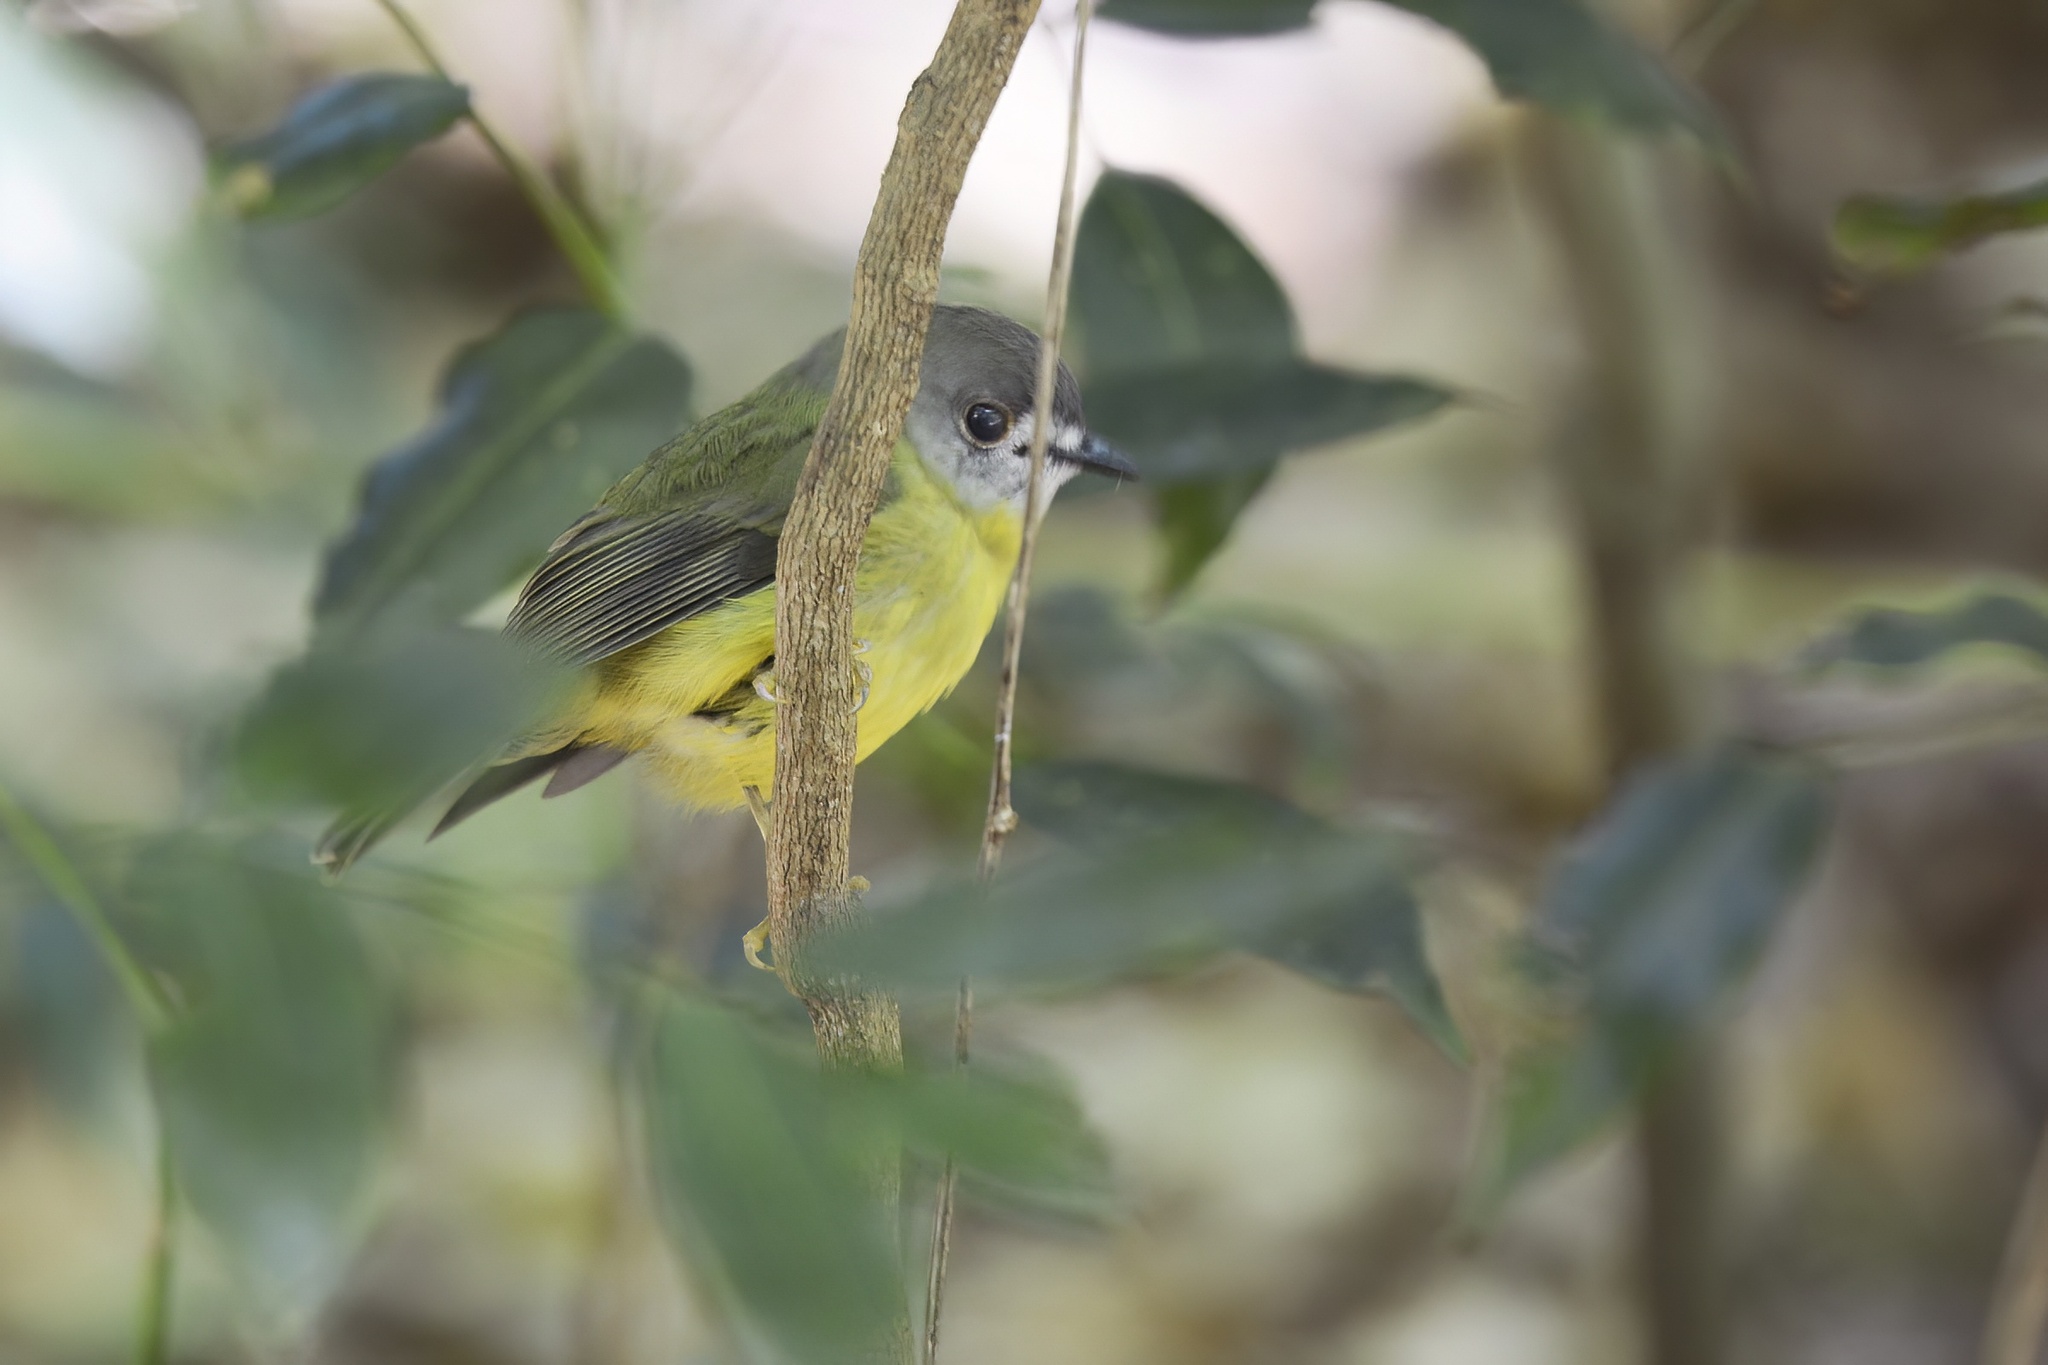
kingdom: Animalia
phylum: Chordata
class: Aves
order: Passeriformes
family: Petroicidae
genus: Eopsaltria
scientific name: Eopsaltria
